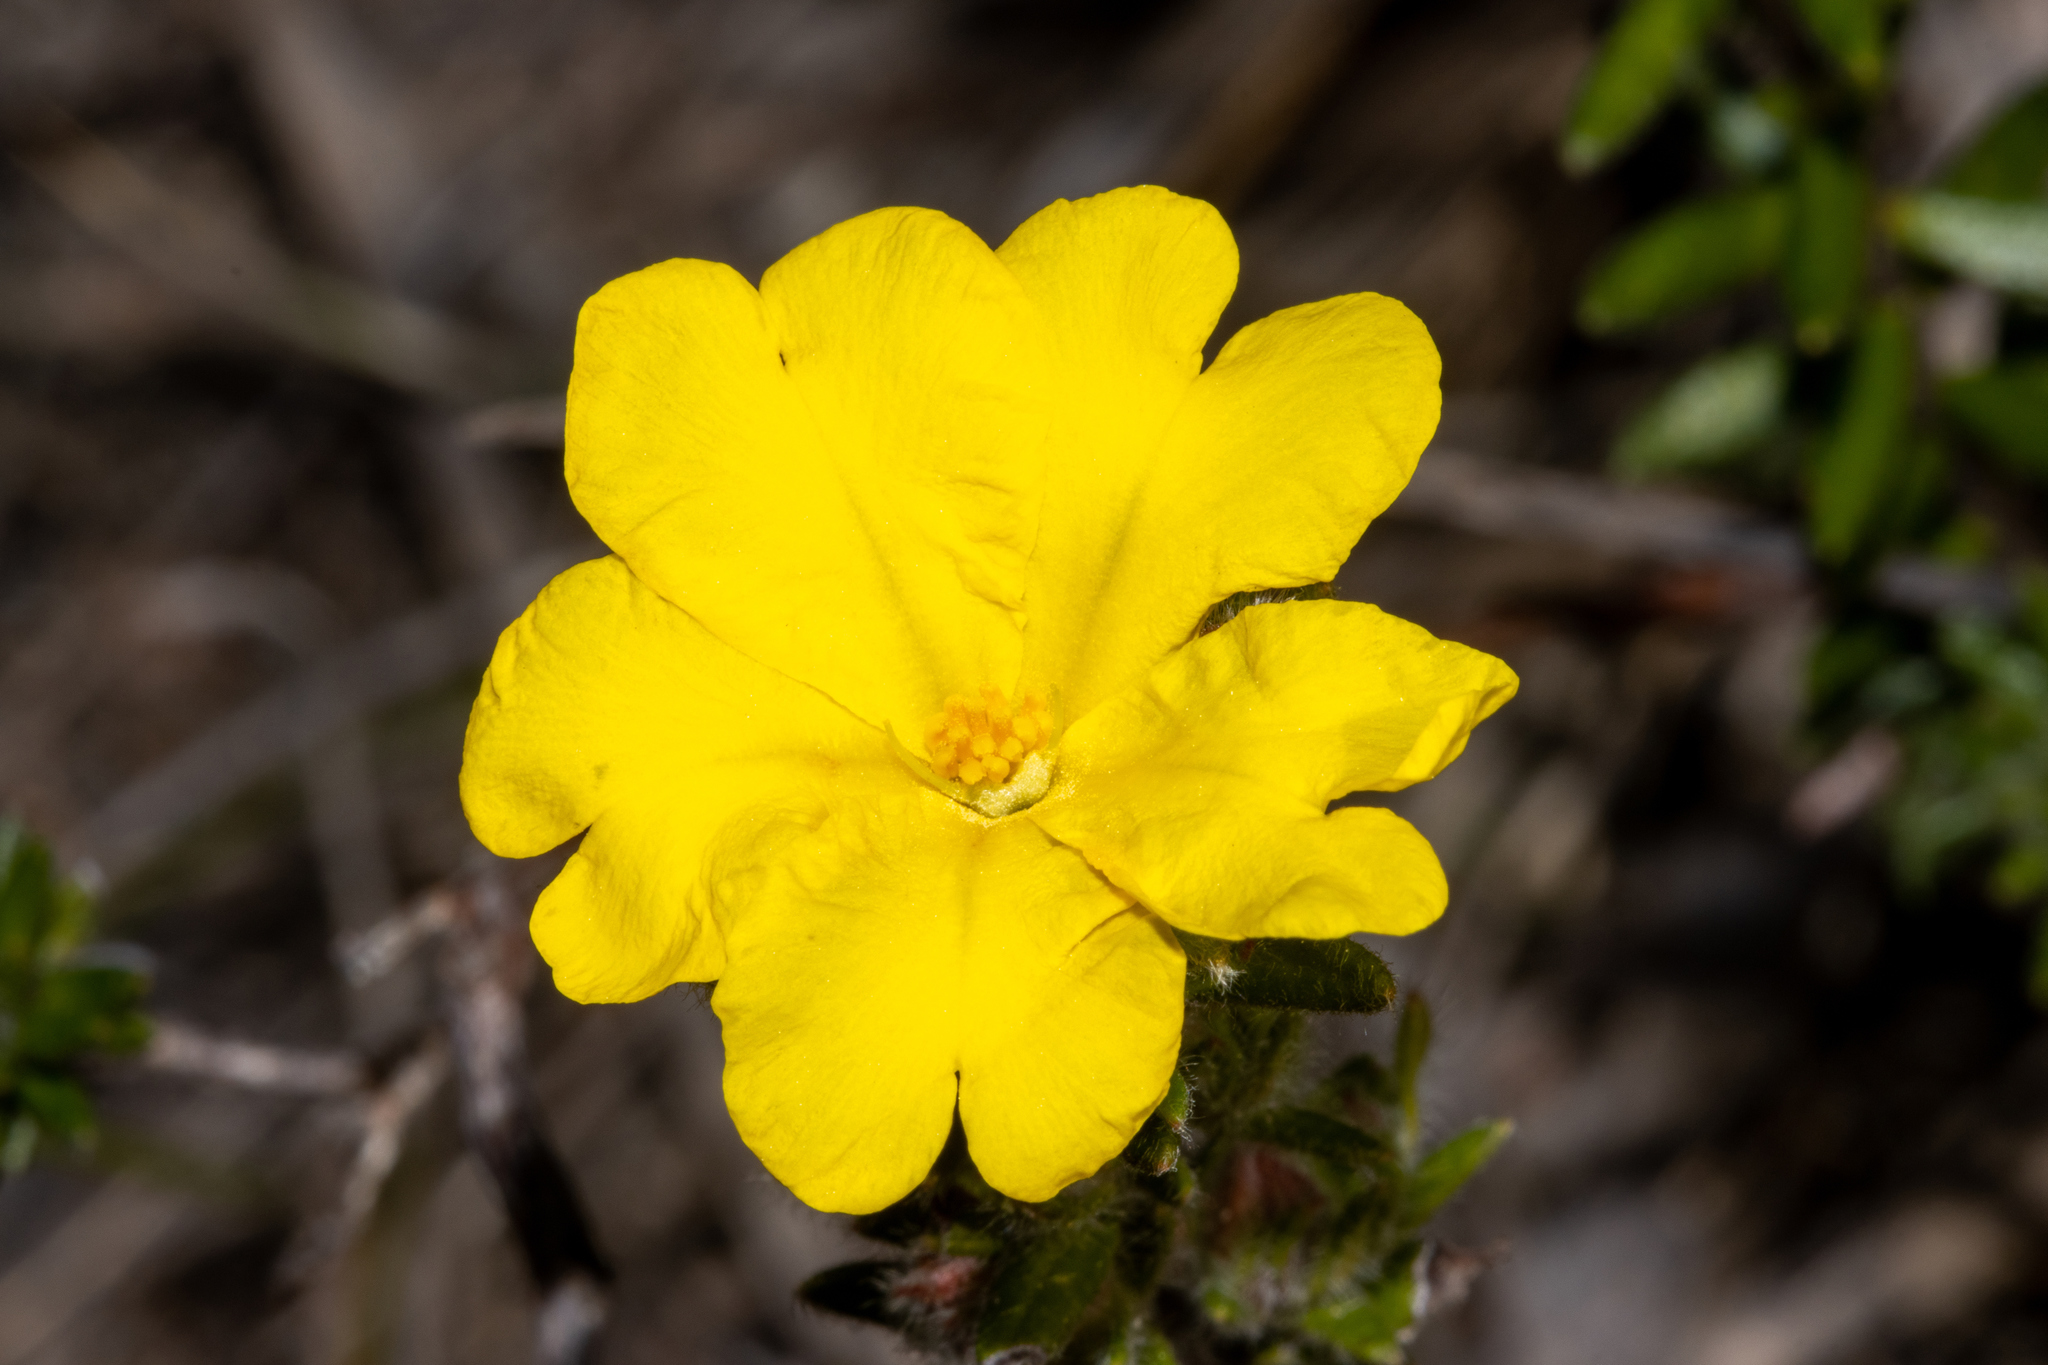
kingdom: Plantae
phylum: Tracheophyta
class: Magnoliopsida
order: Dilleniales
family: Dilleniaceae
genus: Hibbertia
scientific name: Hibbertia villifera
